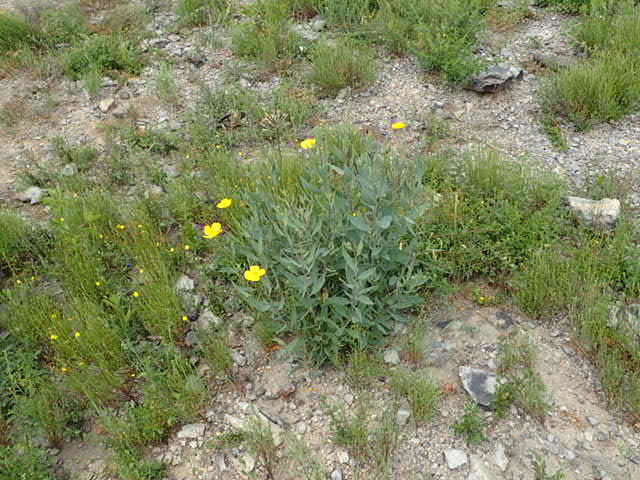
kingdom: Plantae
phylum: Tracheophyta
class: Magnoliopsida
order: Ranunculales
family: Papaveraceae
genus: Dendromecon
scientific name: Dendromecon rigida
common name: Tree poppy
